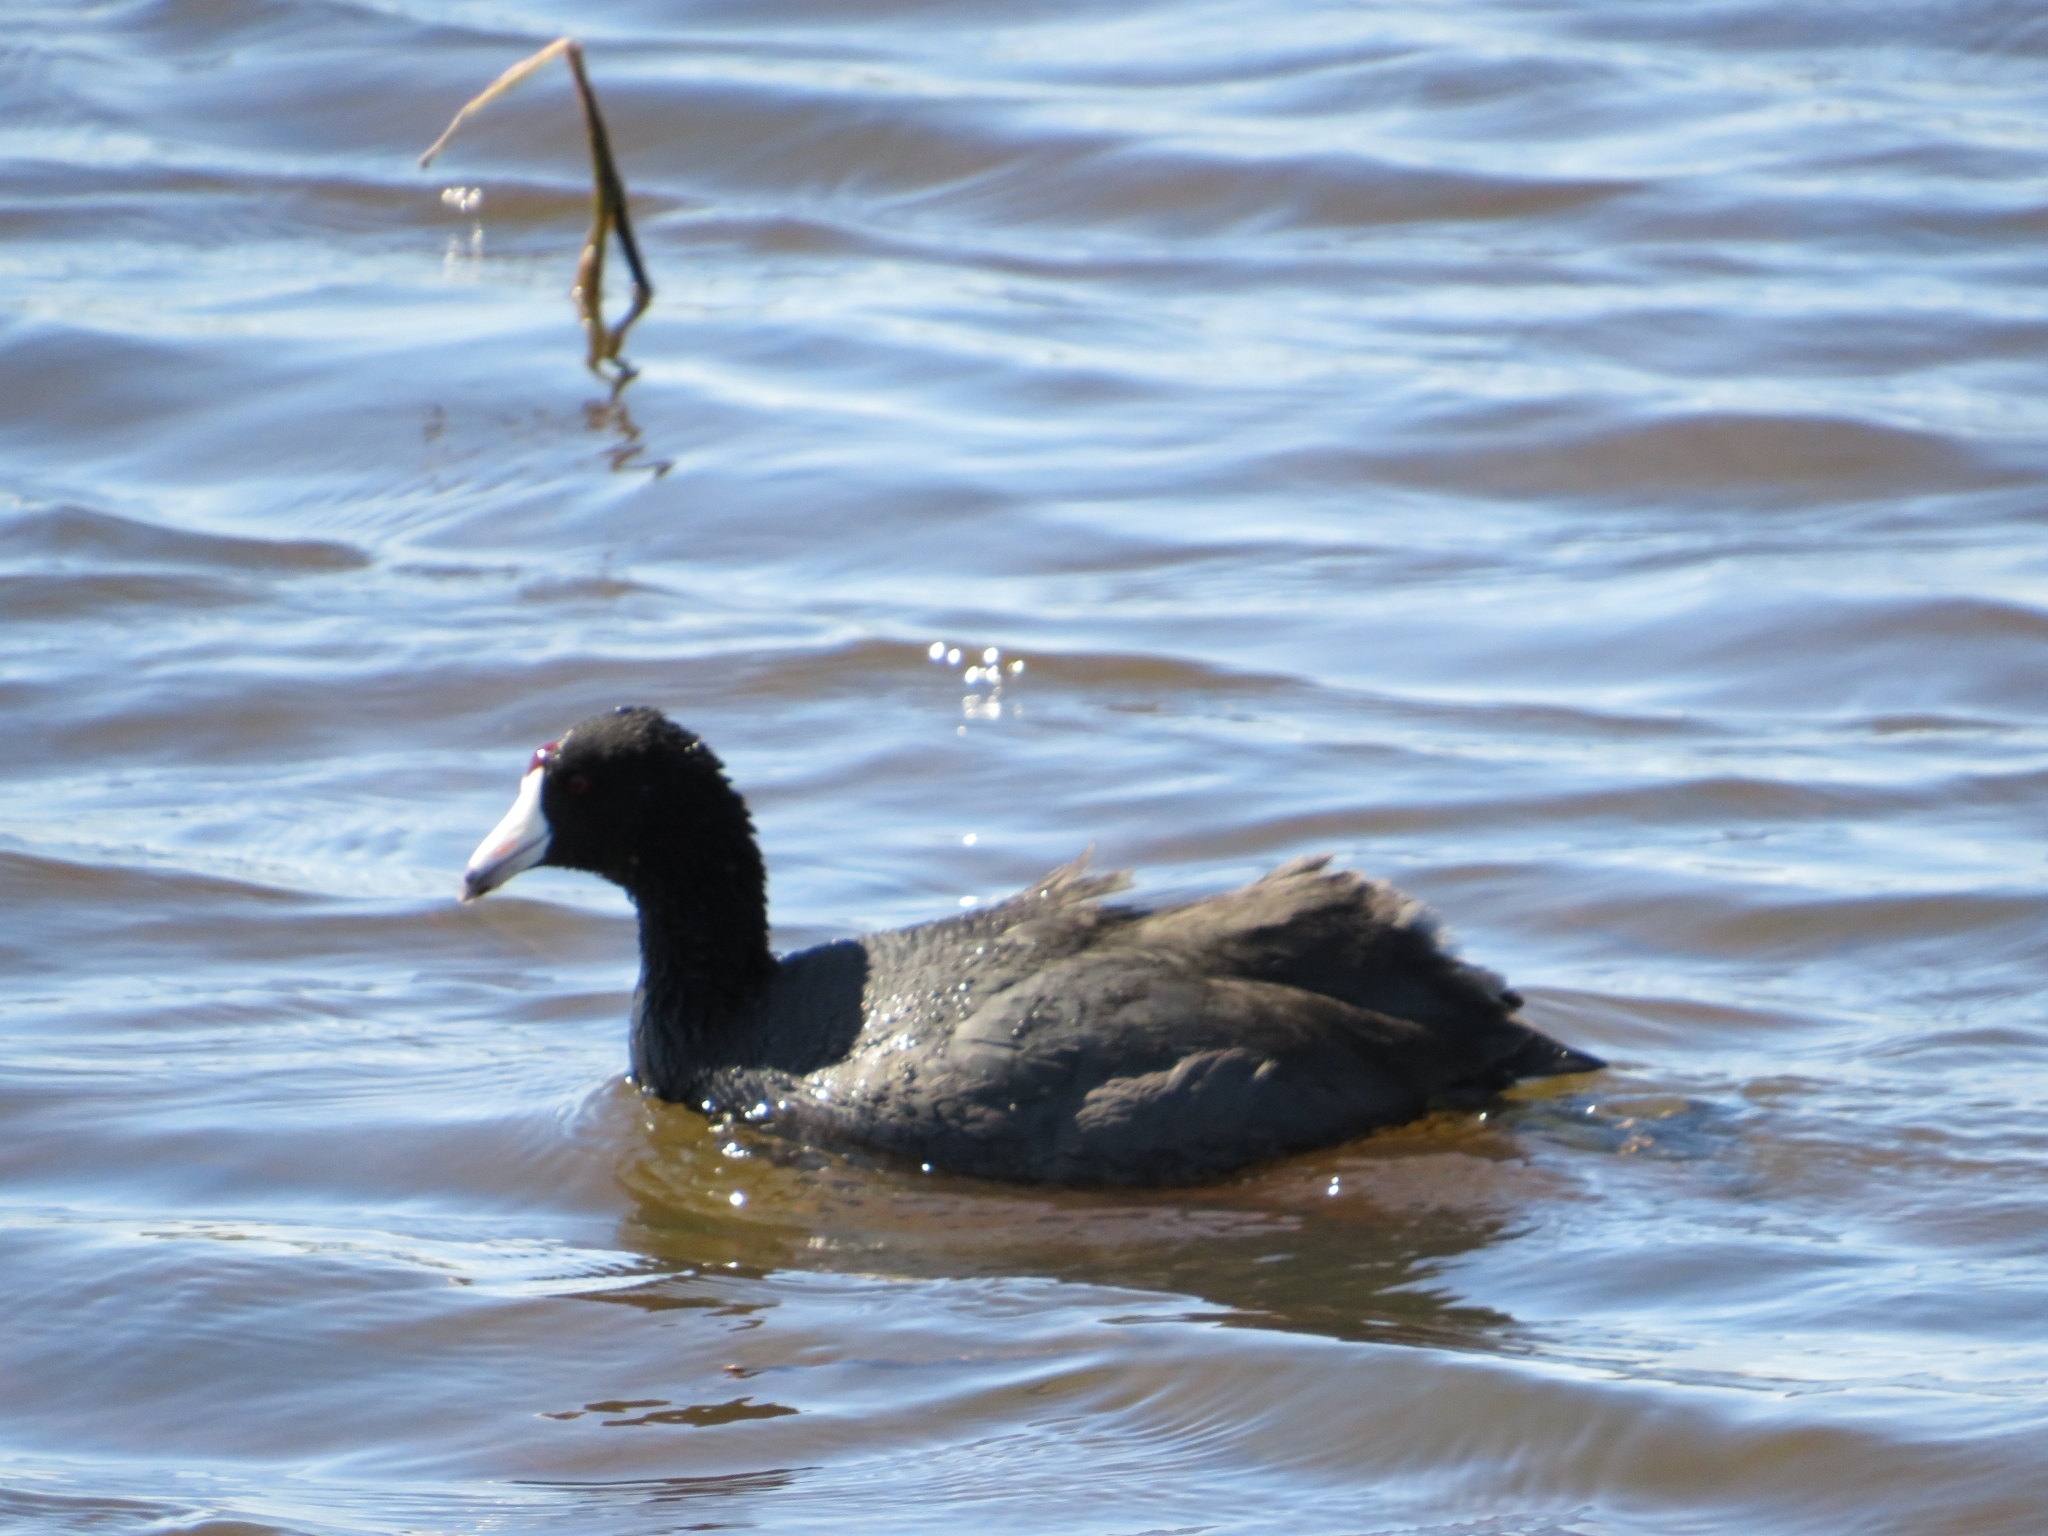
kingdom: Animalia
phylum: Chordata
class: Aves
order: Gruiformes
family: Rallidae
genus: Fulica
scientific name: Fulica americana
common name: American coot
